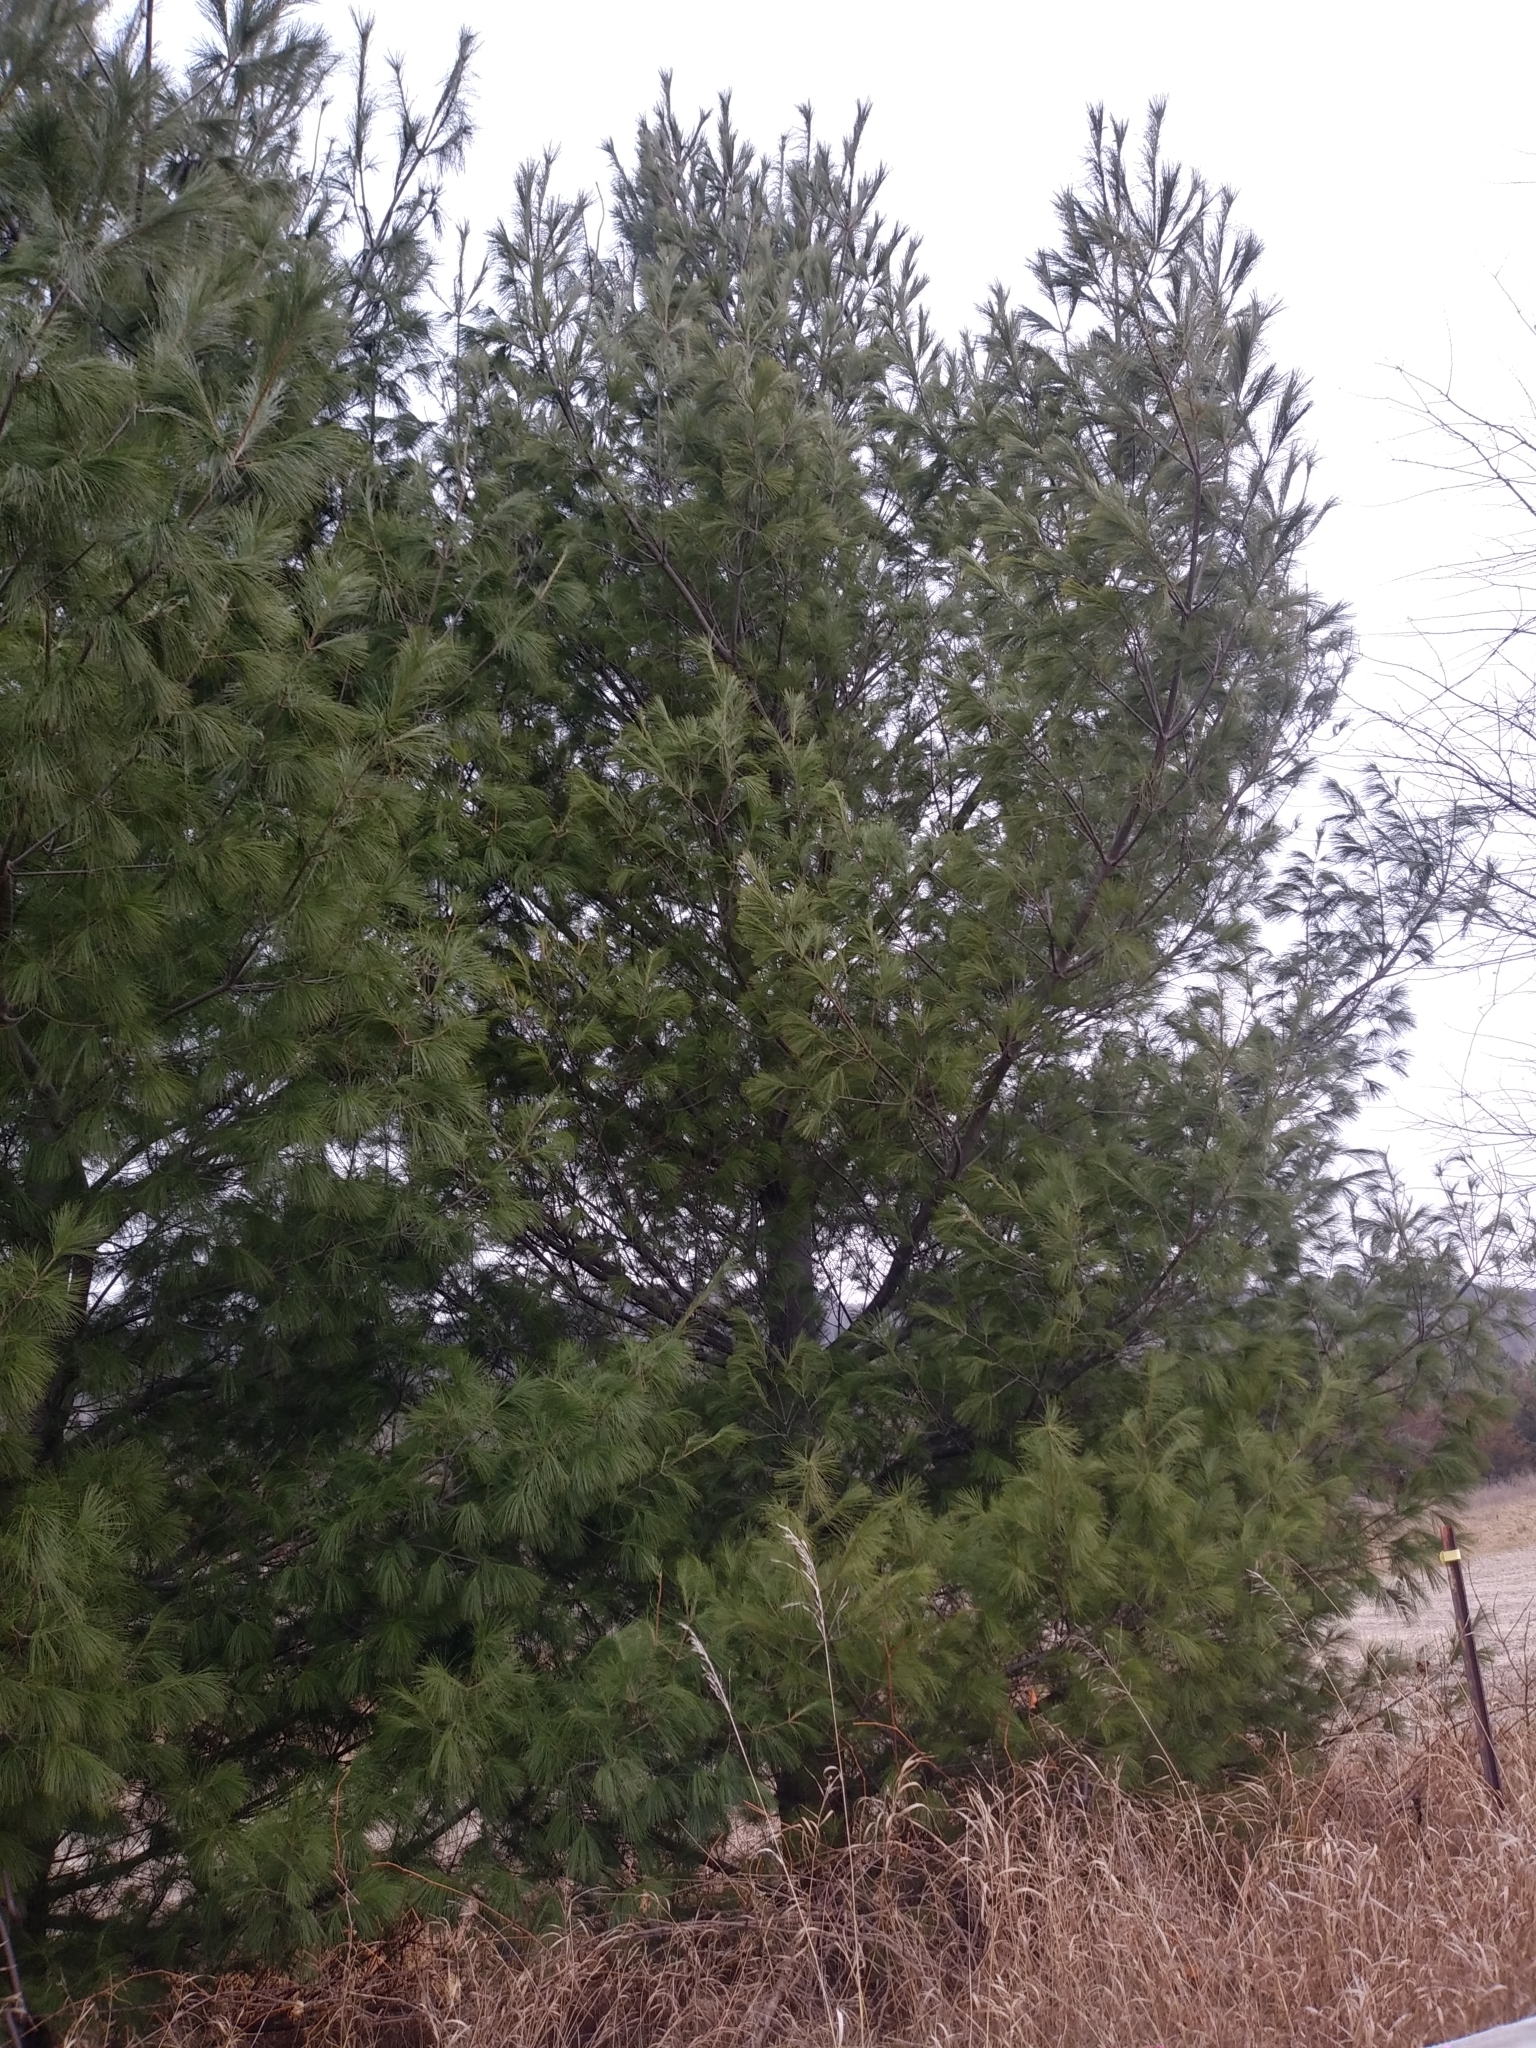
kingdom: Plantae
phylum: Tracheophyta
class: Pinopsida
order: Pinales
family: Pinaceae
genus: Pinus
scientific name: Pinus strobus
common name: Weymouth pine
